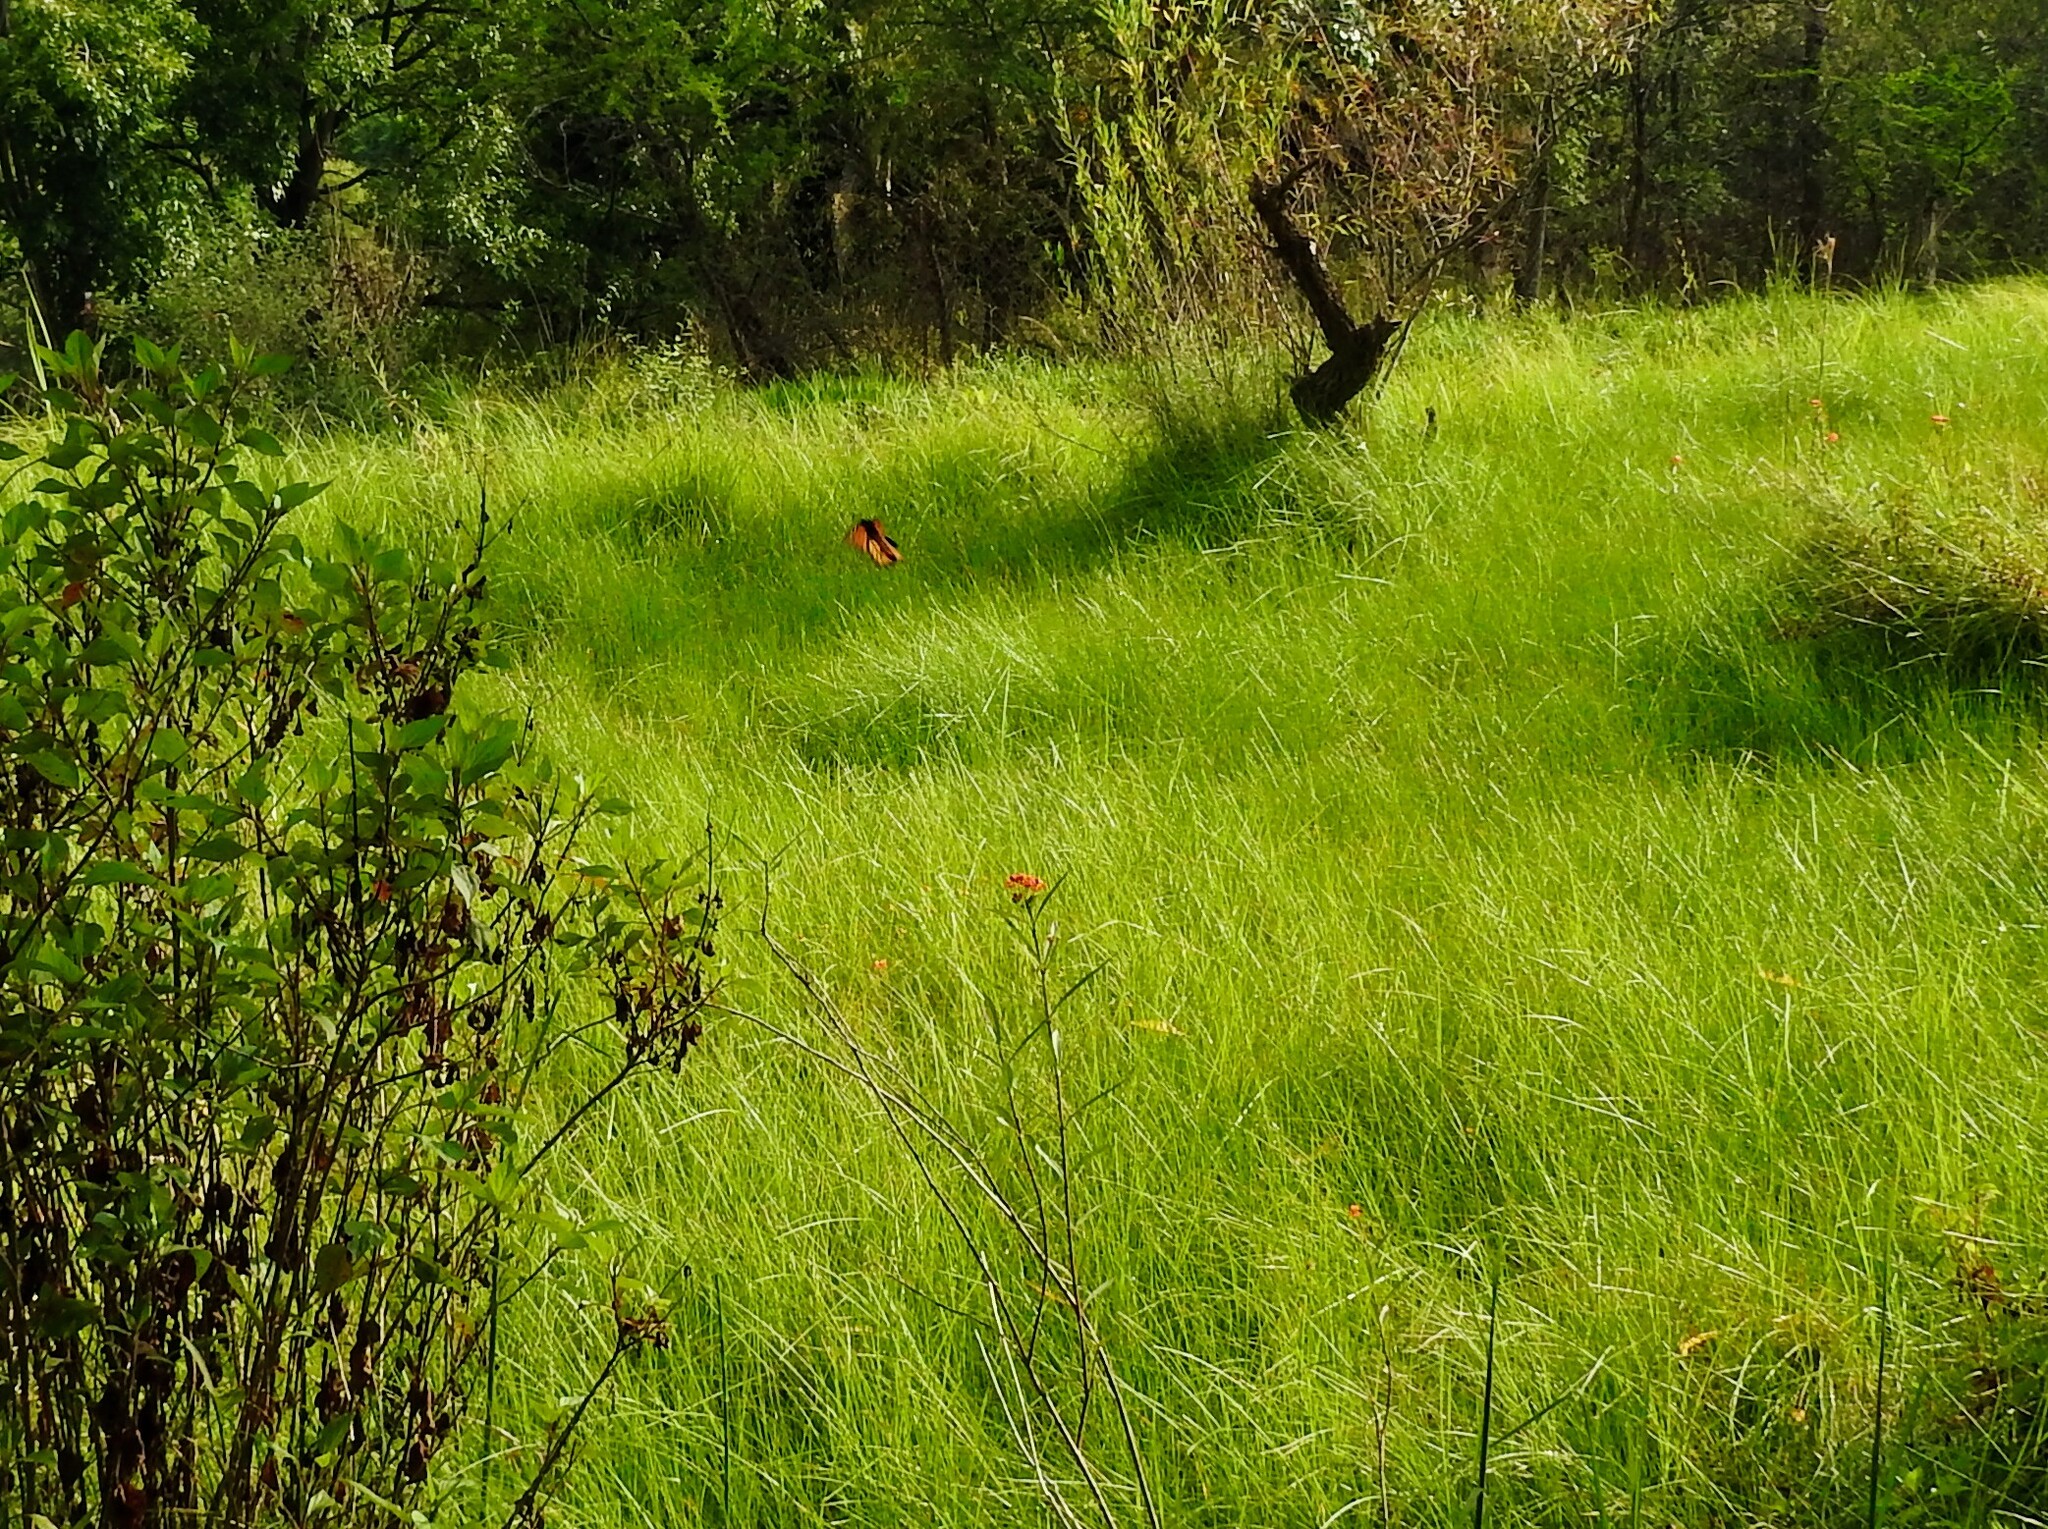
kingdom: Animalia
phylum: Arthropoda
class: Insecta
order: Lepidoptera
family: Nymphalidae
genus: Danaus
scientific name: Danaus plexippus
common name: Monarch
